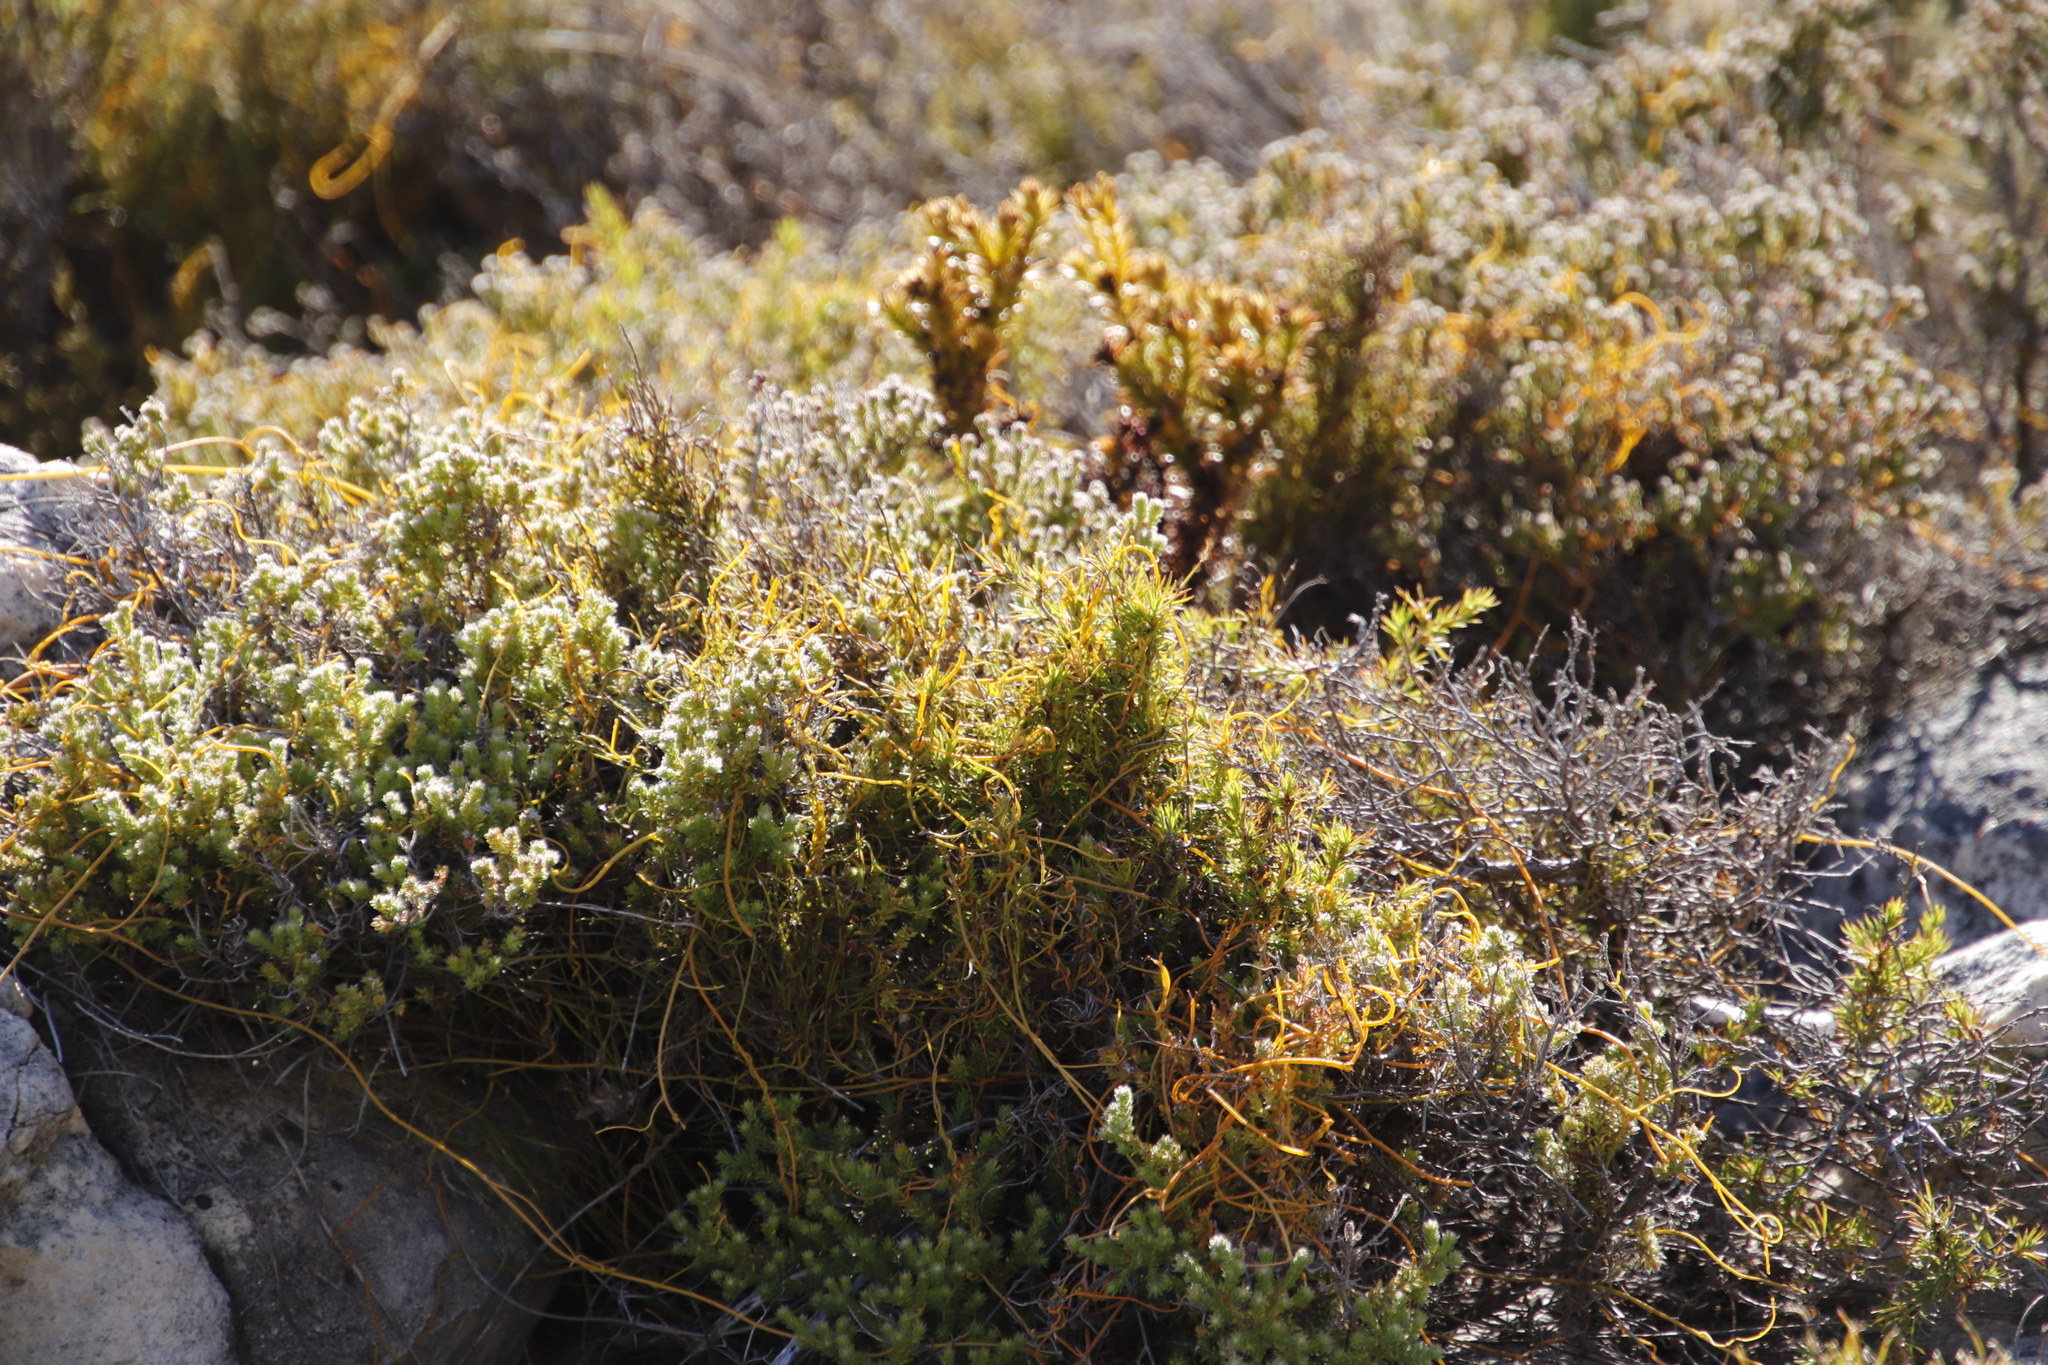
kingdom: Plantae
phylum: Tracheophyta
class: Magnoliopsida
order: Laurales
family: Lauraceae
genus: Cassytha
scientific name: Cassytha ciliolata
